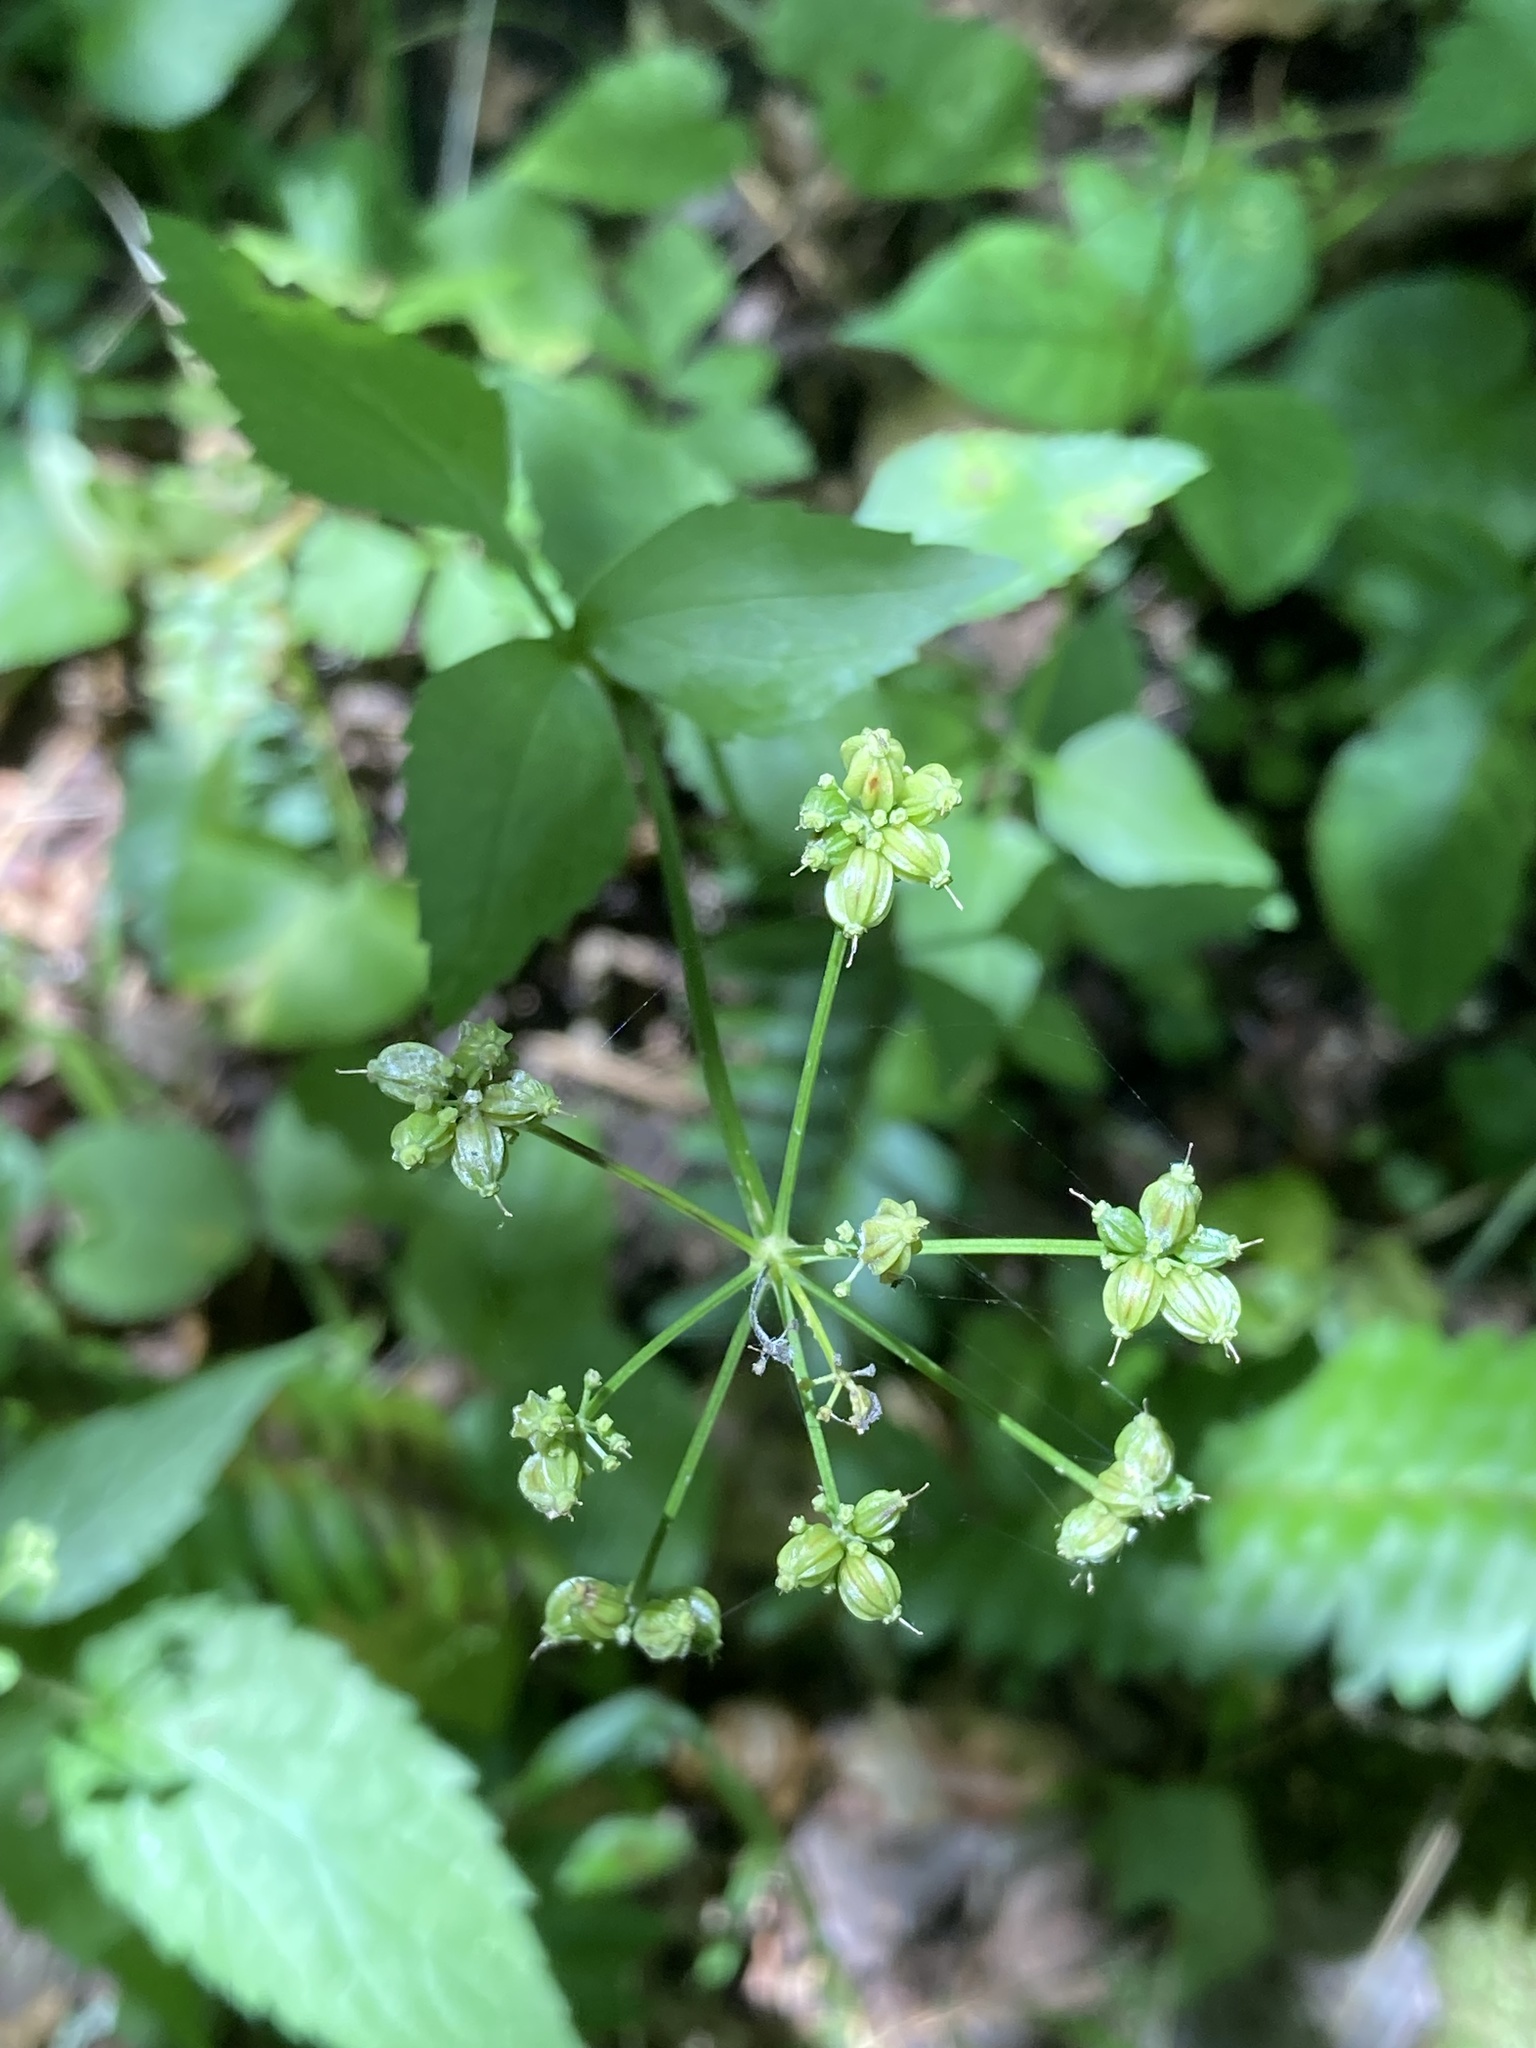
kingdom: Plantae
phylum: Tracheophyta
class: Magnoliopsida
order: Apiales
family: Apiaceae
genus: Thaspium
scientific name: Thaspium trifoliatum
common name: Purple meadow-parsnip
